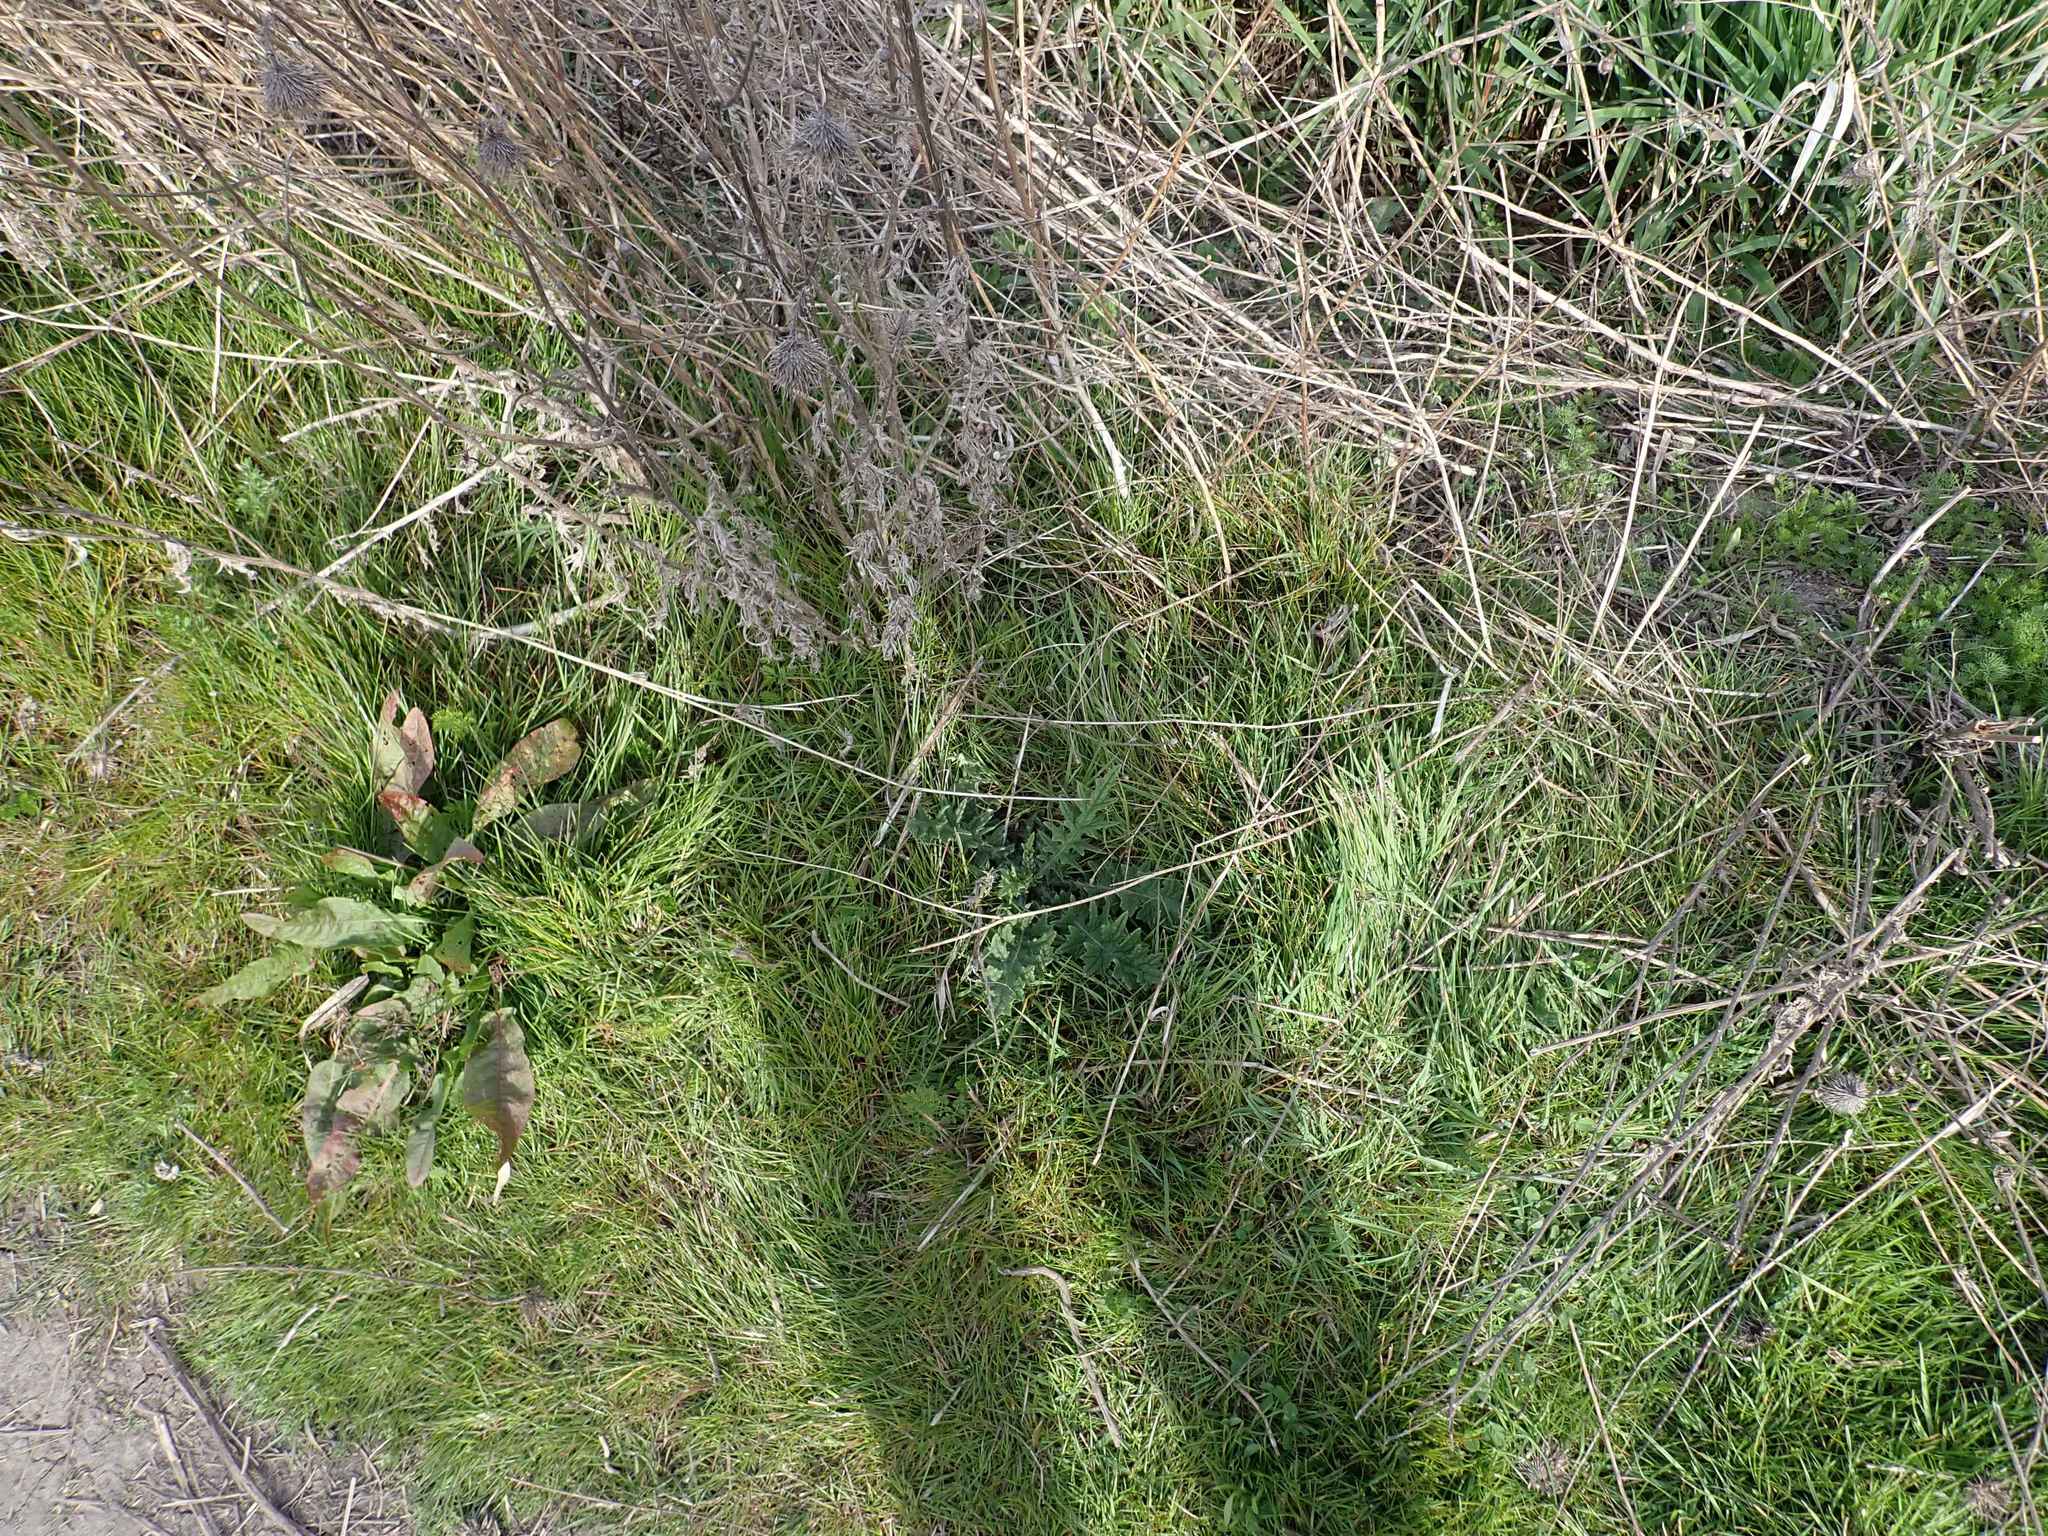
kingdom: Plantae
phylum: Tracheophyta
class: Magnoliopsida
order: Asterales
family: Asteraceae
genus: Cirsium
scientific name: Cirsium vulgare
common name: Bull thistle
